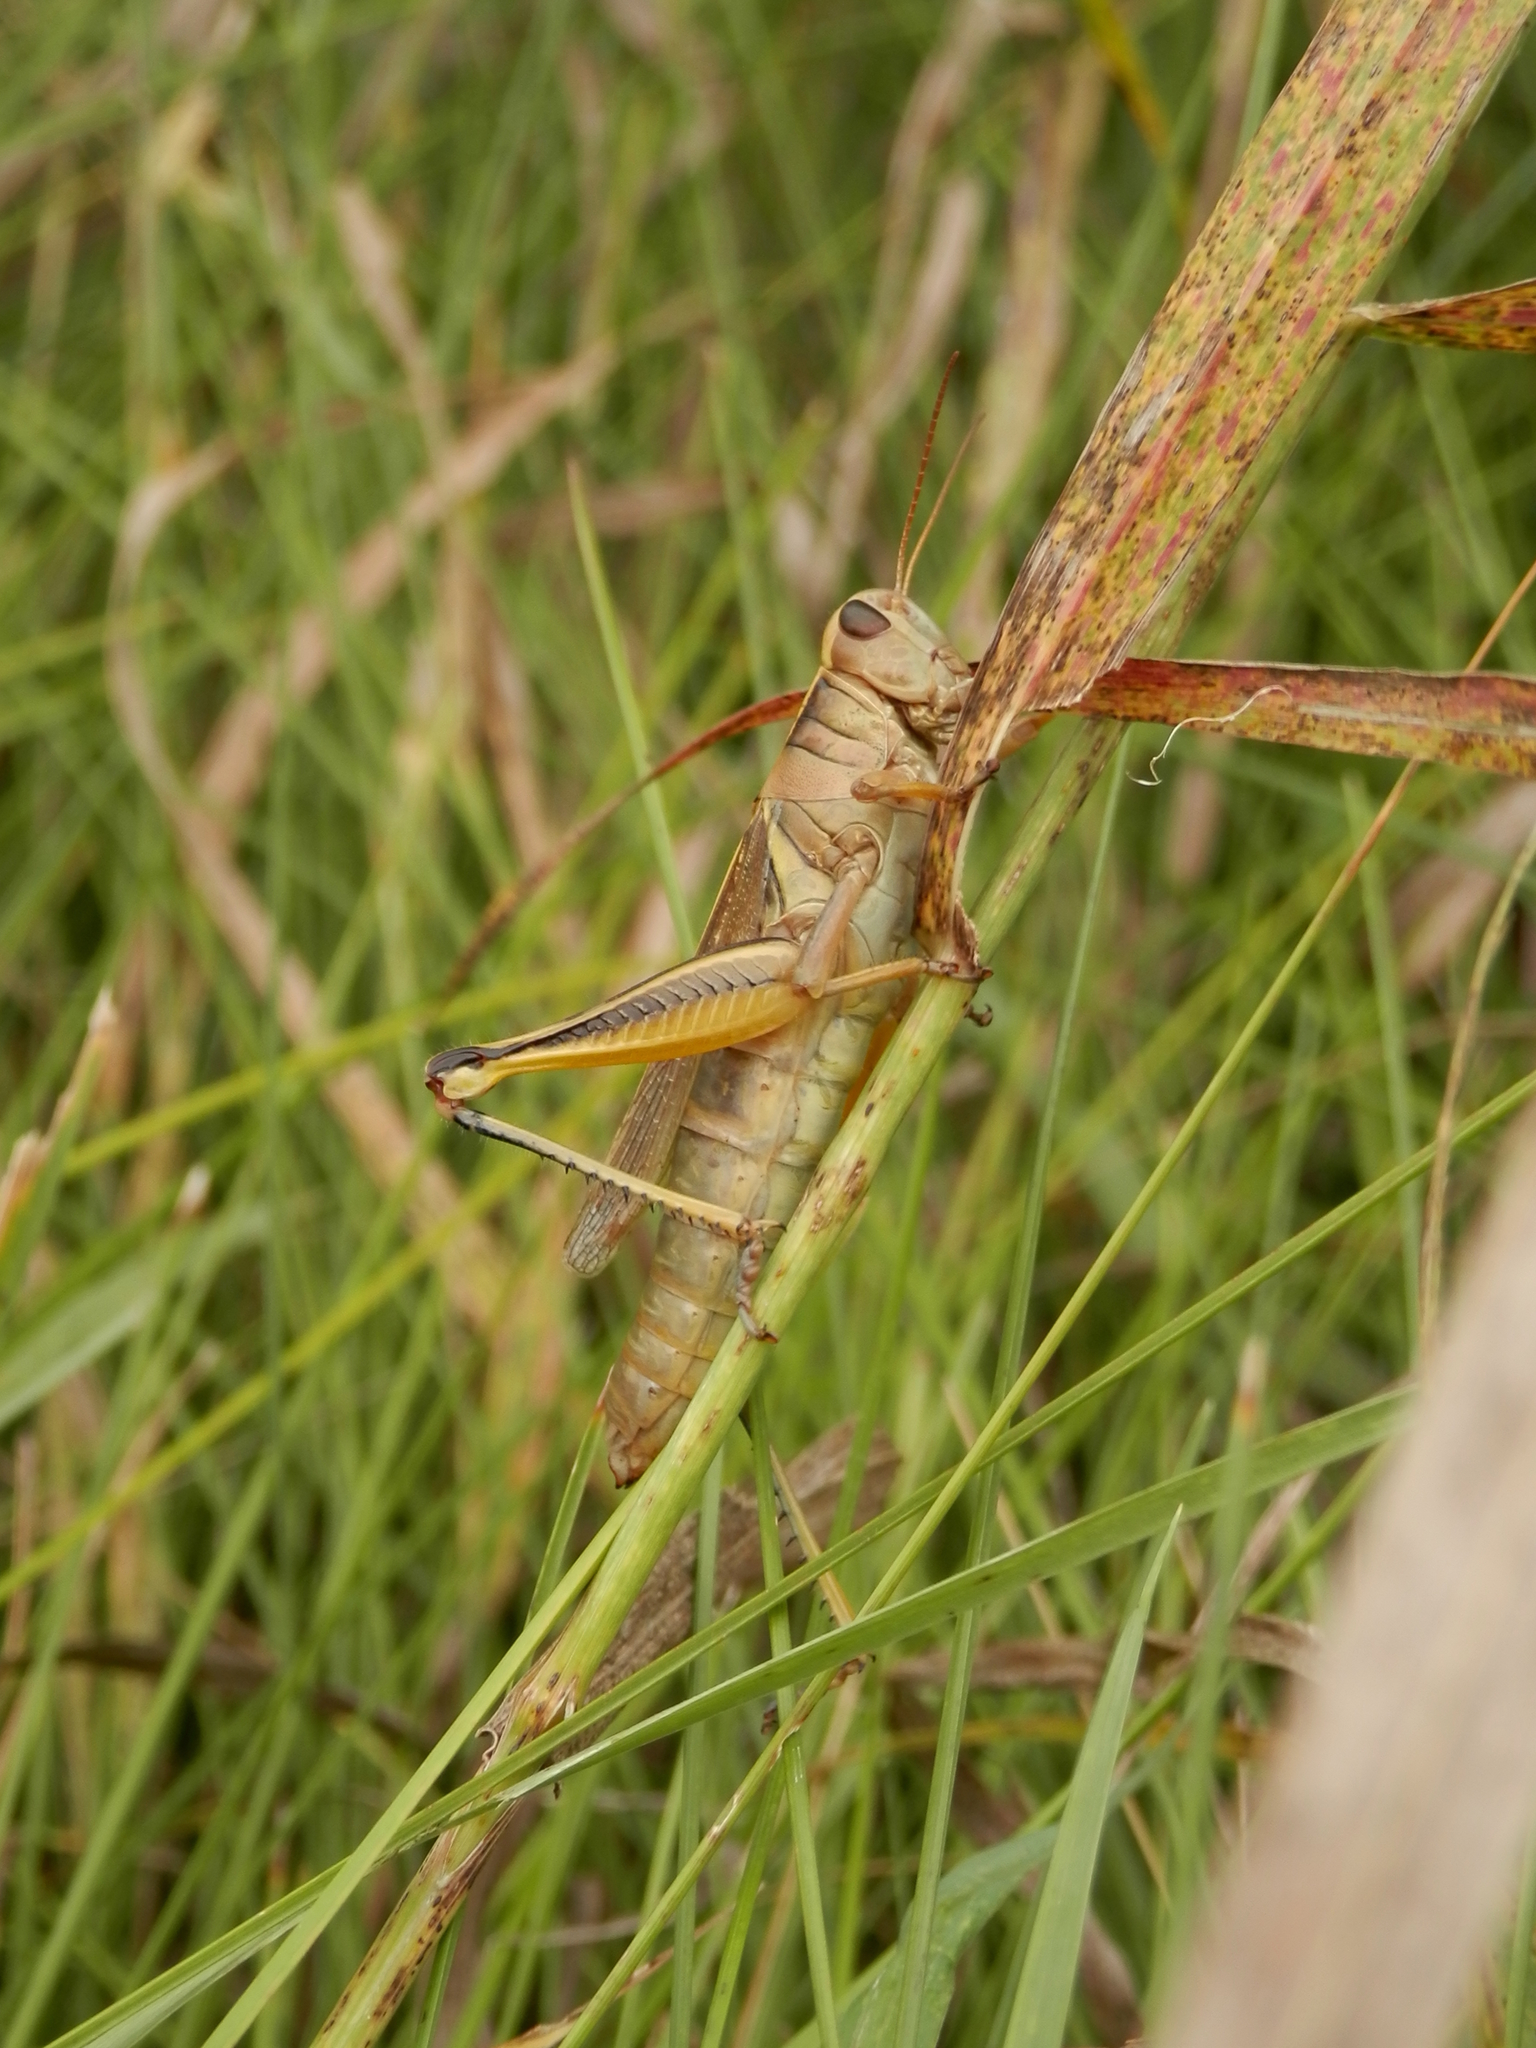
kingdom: Animalia
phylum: Arthropoda
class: Insecta
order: Orthoptera
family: Acrididae
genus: Melanoplus
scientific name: Melanoplus bivittatus
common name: Two-striped grasshopper
